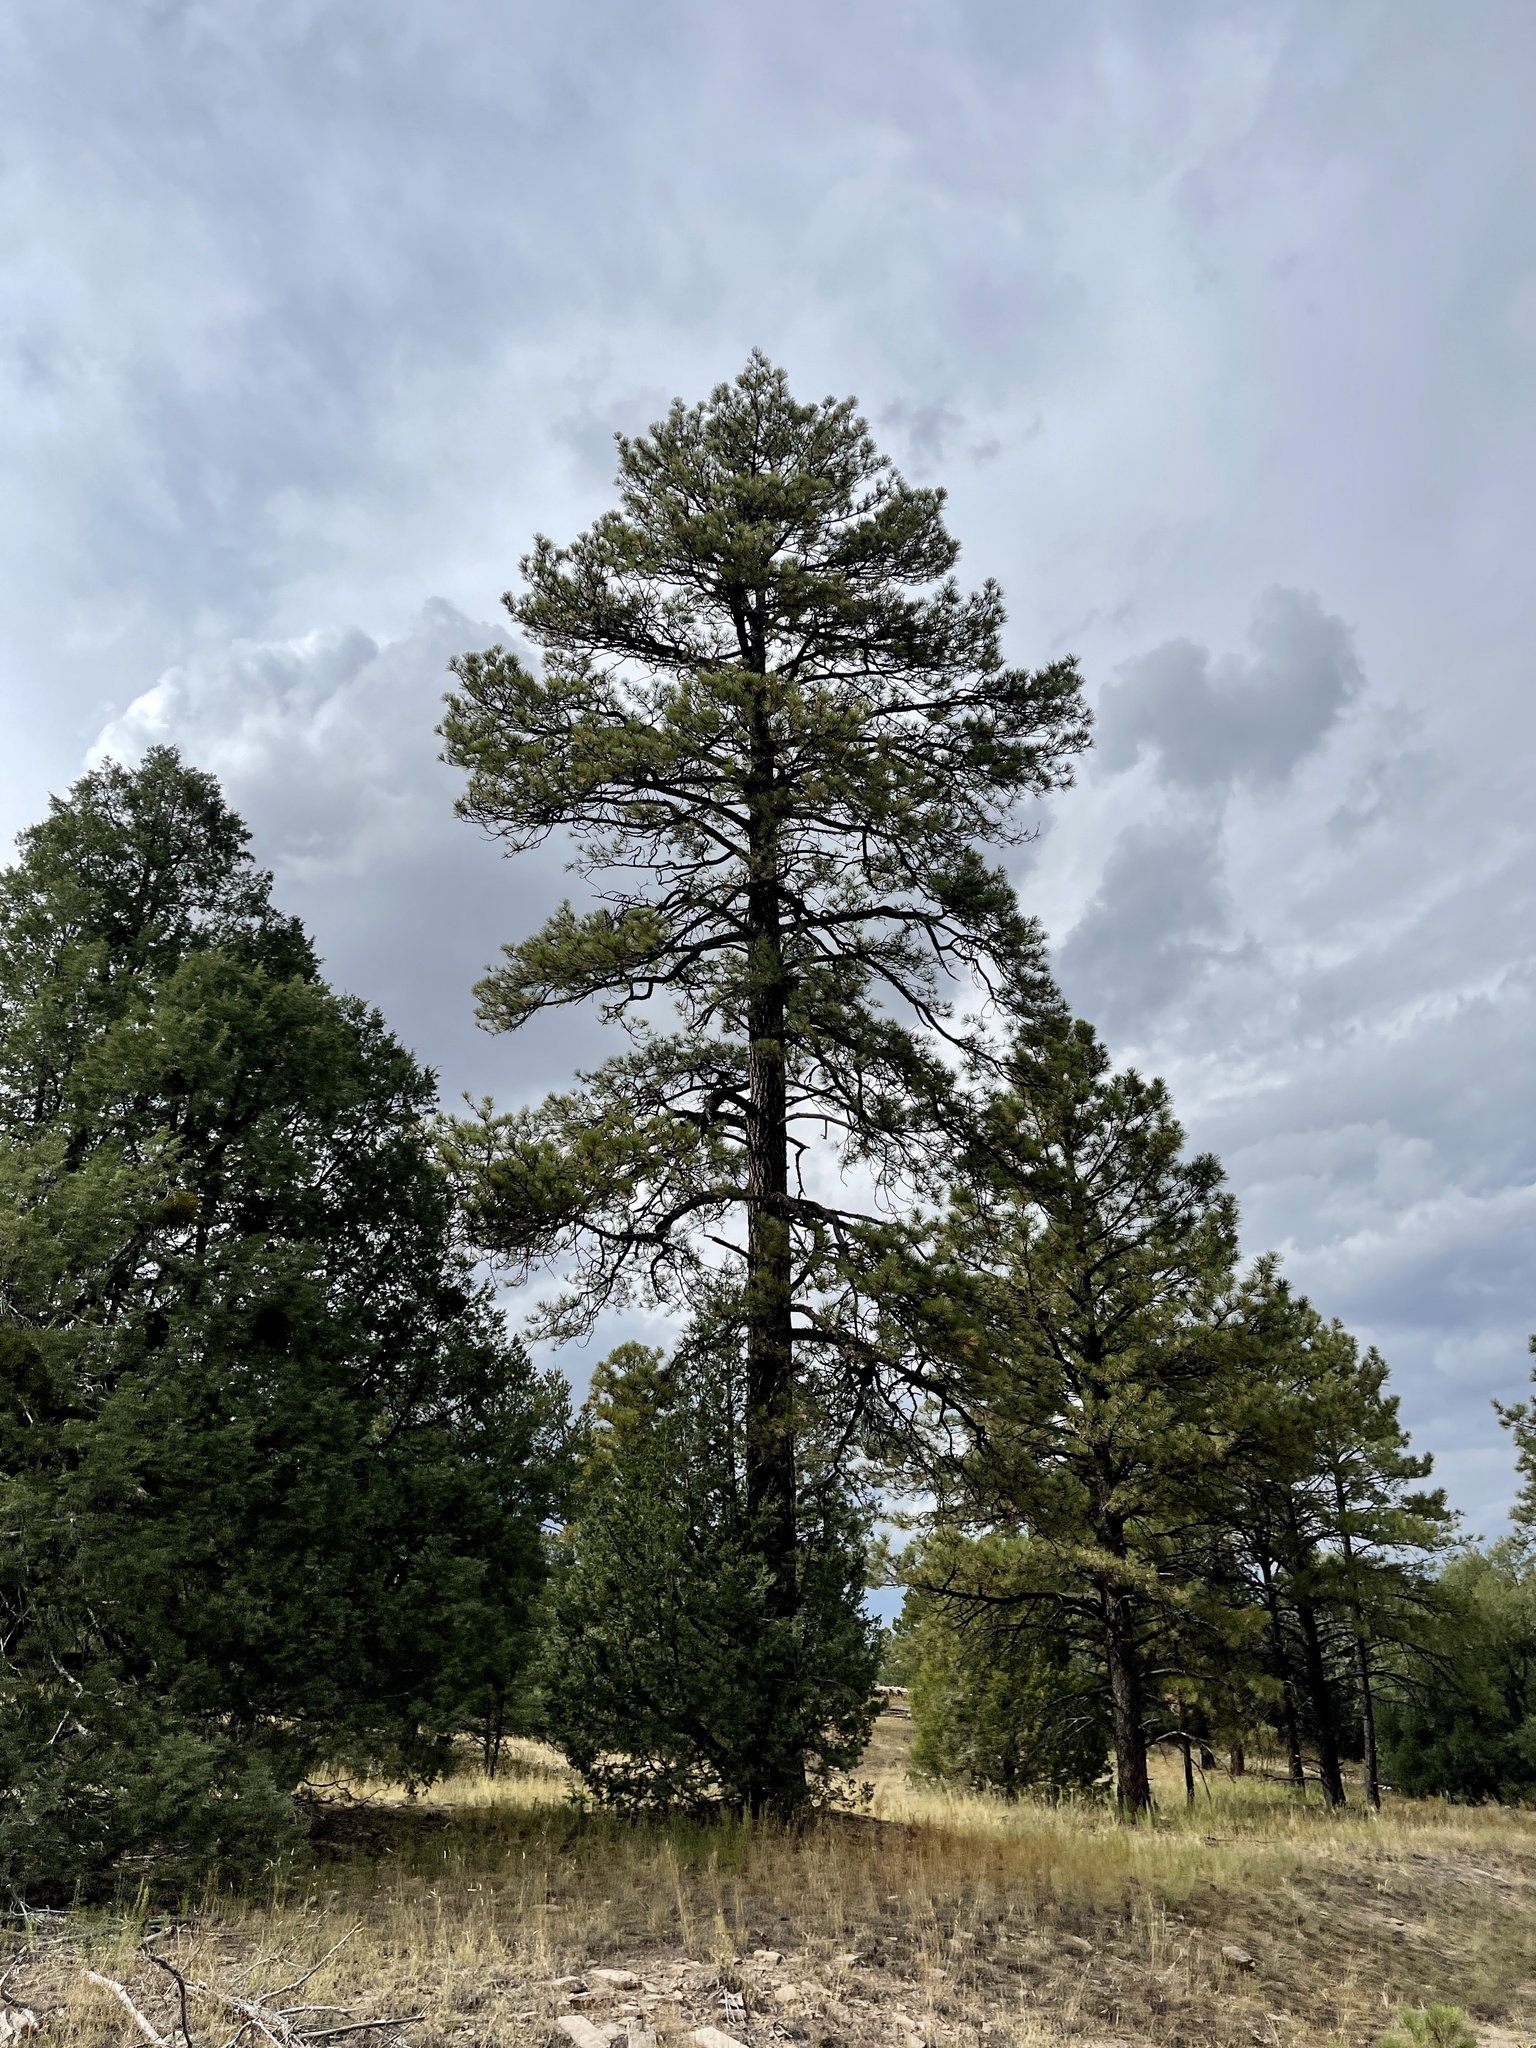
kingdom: Plantae
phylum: Tracheophyta
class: Pinopsida
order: Pinales
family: Pinaceae
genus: Pinus
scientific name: Pinus ponderosa
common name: Western yellow-pine
